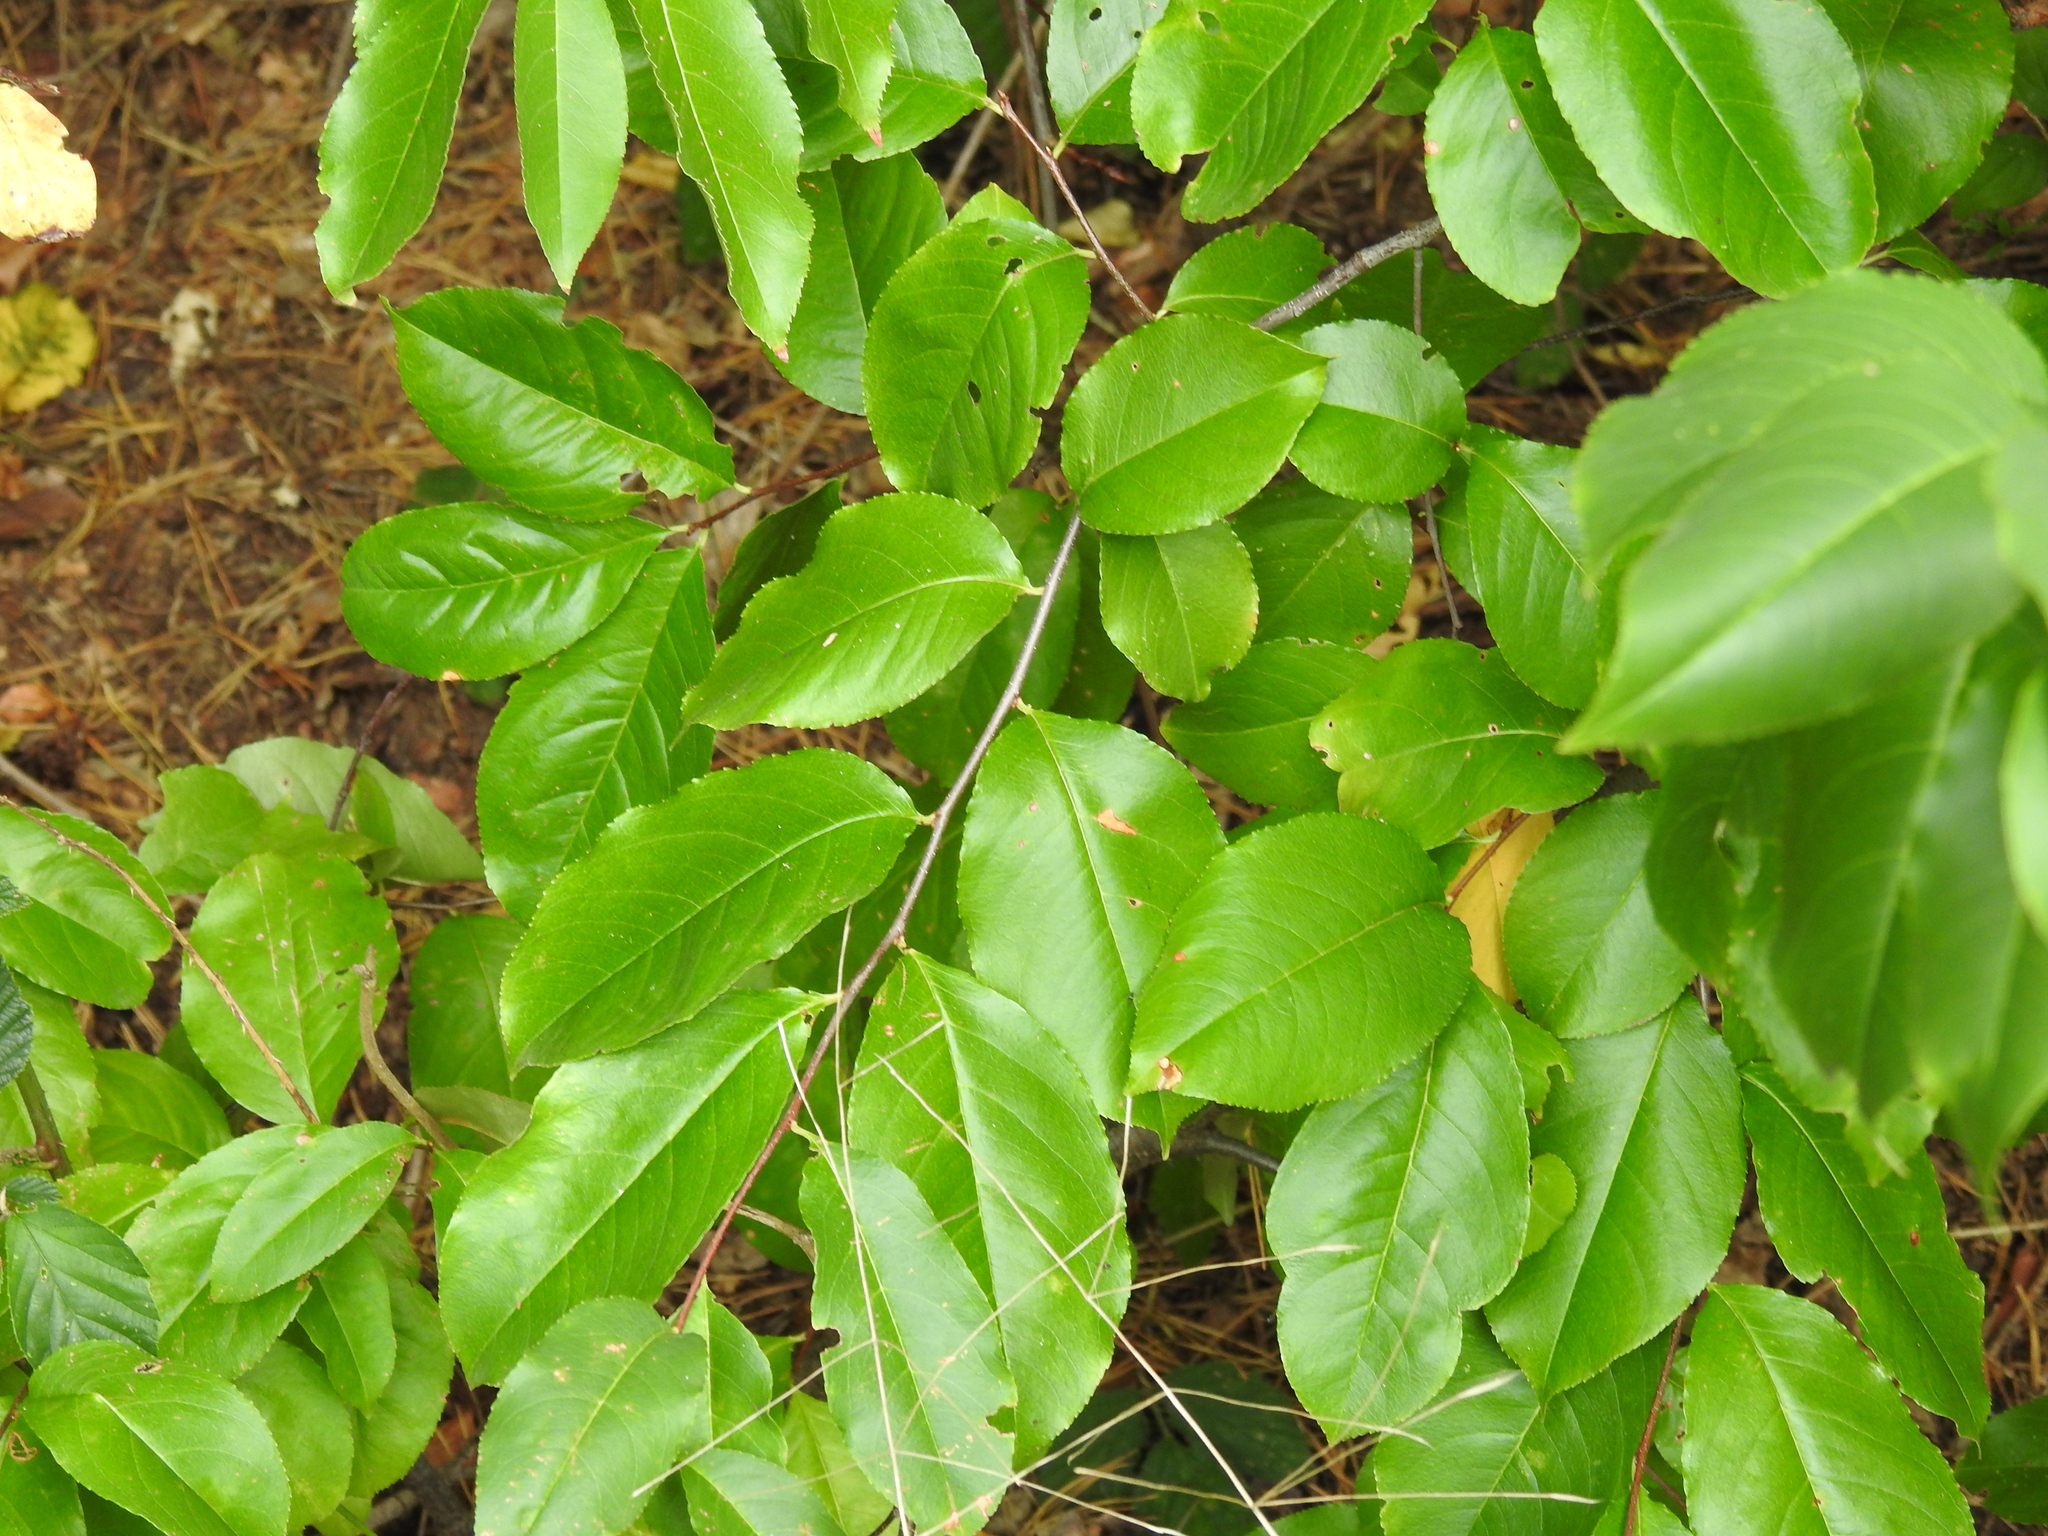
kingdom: Plantae
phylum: Tracheophyta
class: Magnoliopsida
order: Rosales
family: Rosaceae
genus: Prunus
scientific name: Prunus serotina
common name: Black cherry
